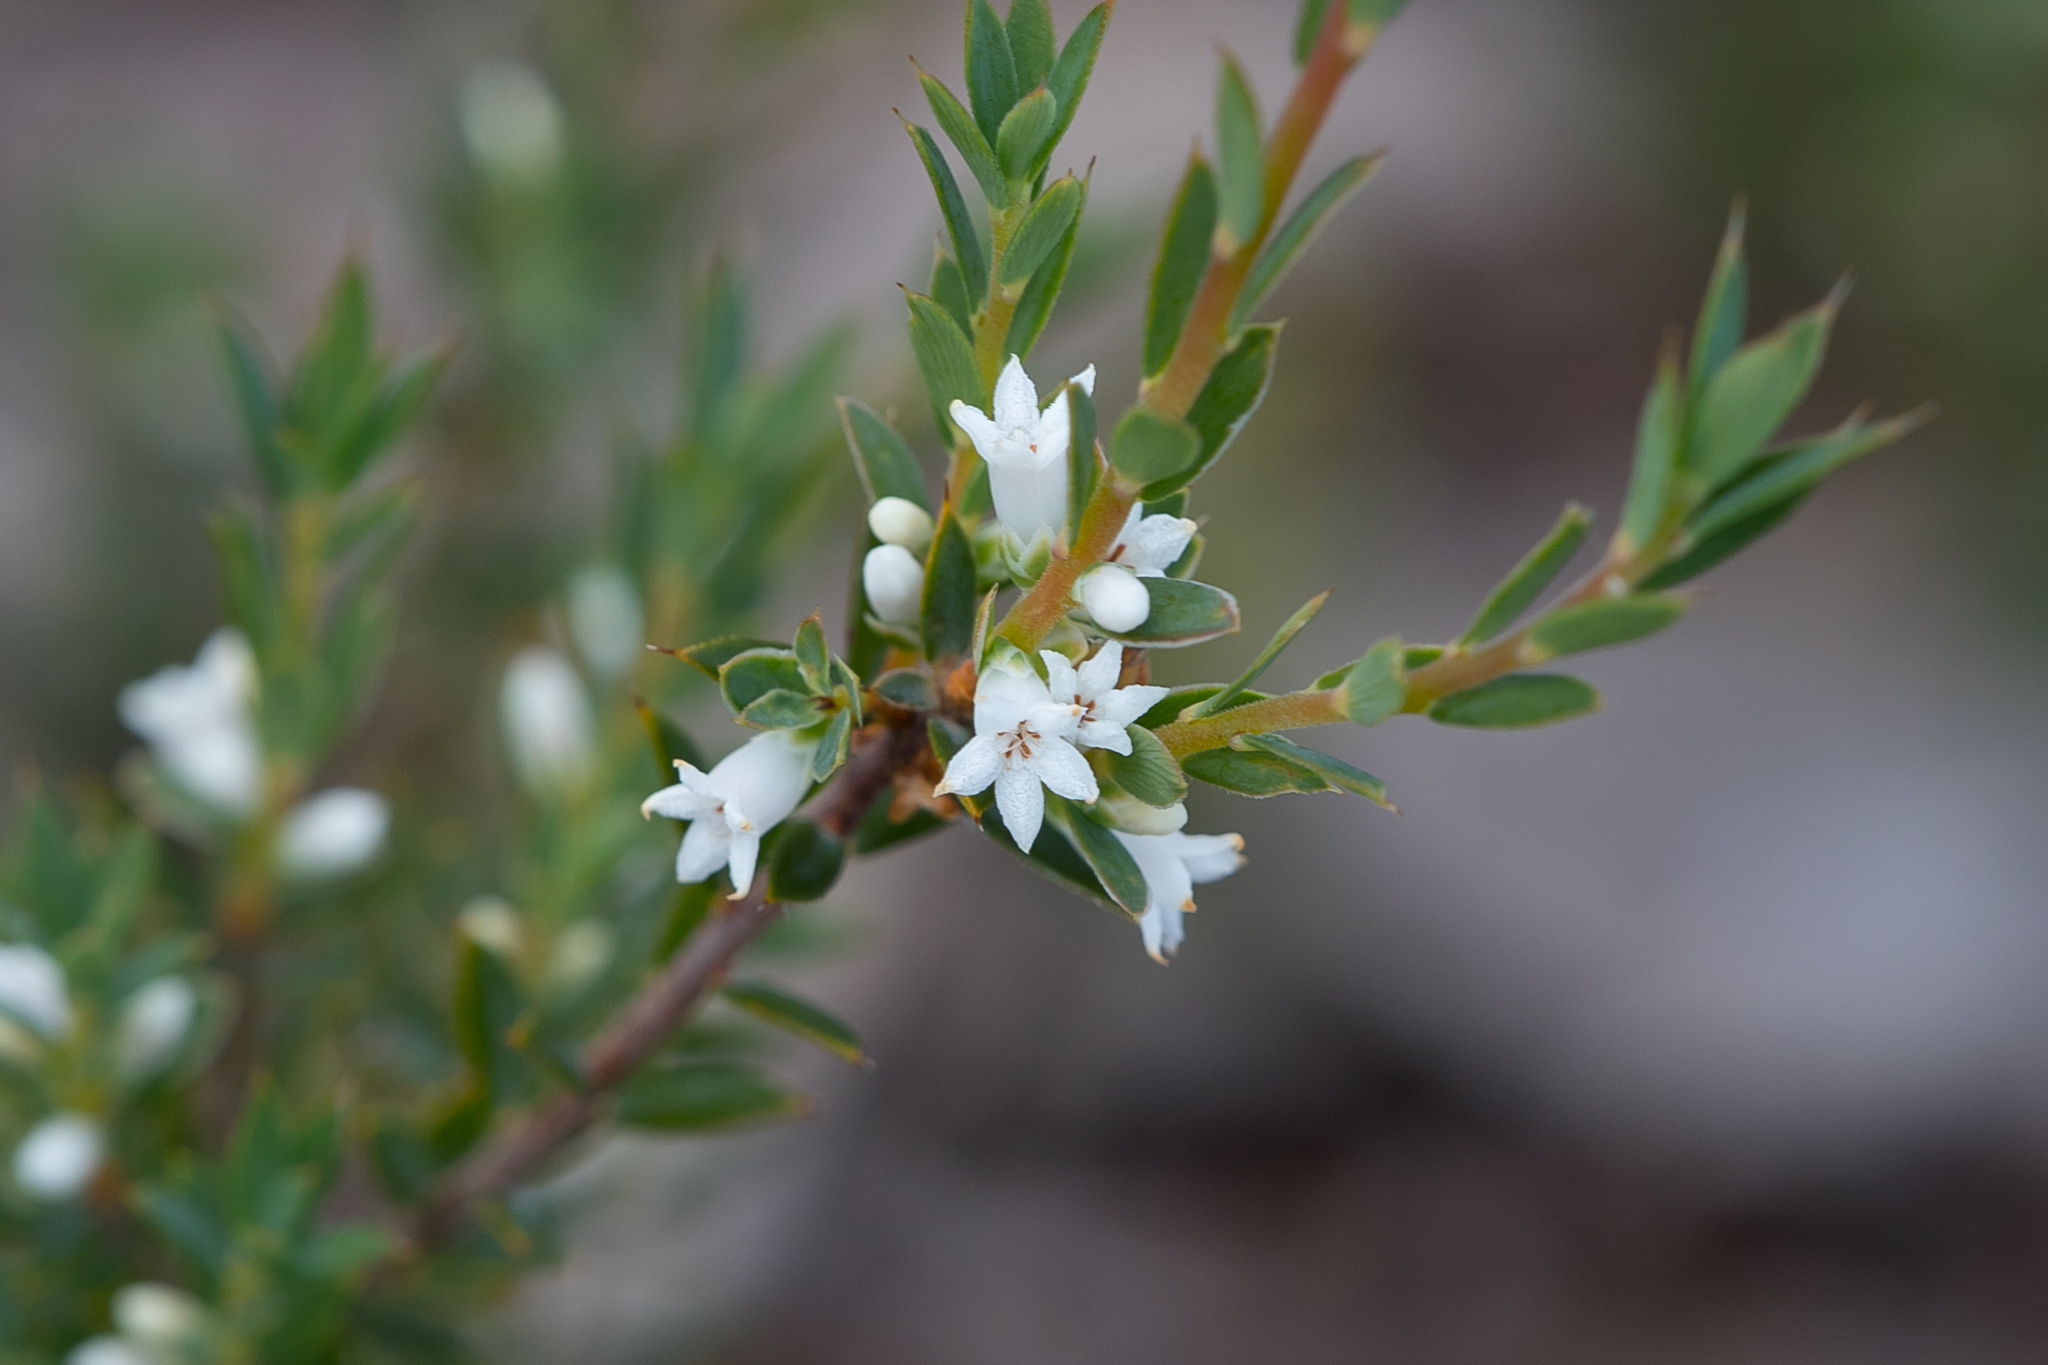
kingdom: Plantae
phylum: Tracheophyta
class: Magnoliopsida
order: Ericales
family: Ericaceae
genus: Brachyloma
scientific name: Brachyloma ciliatum
